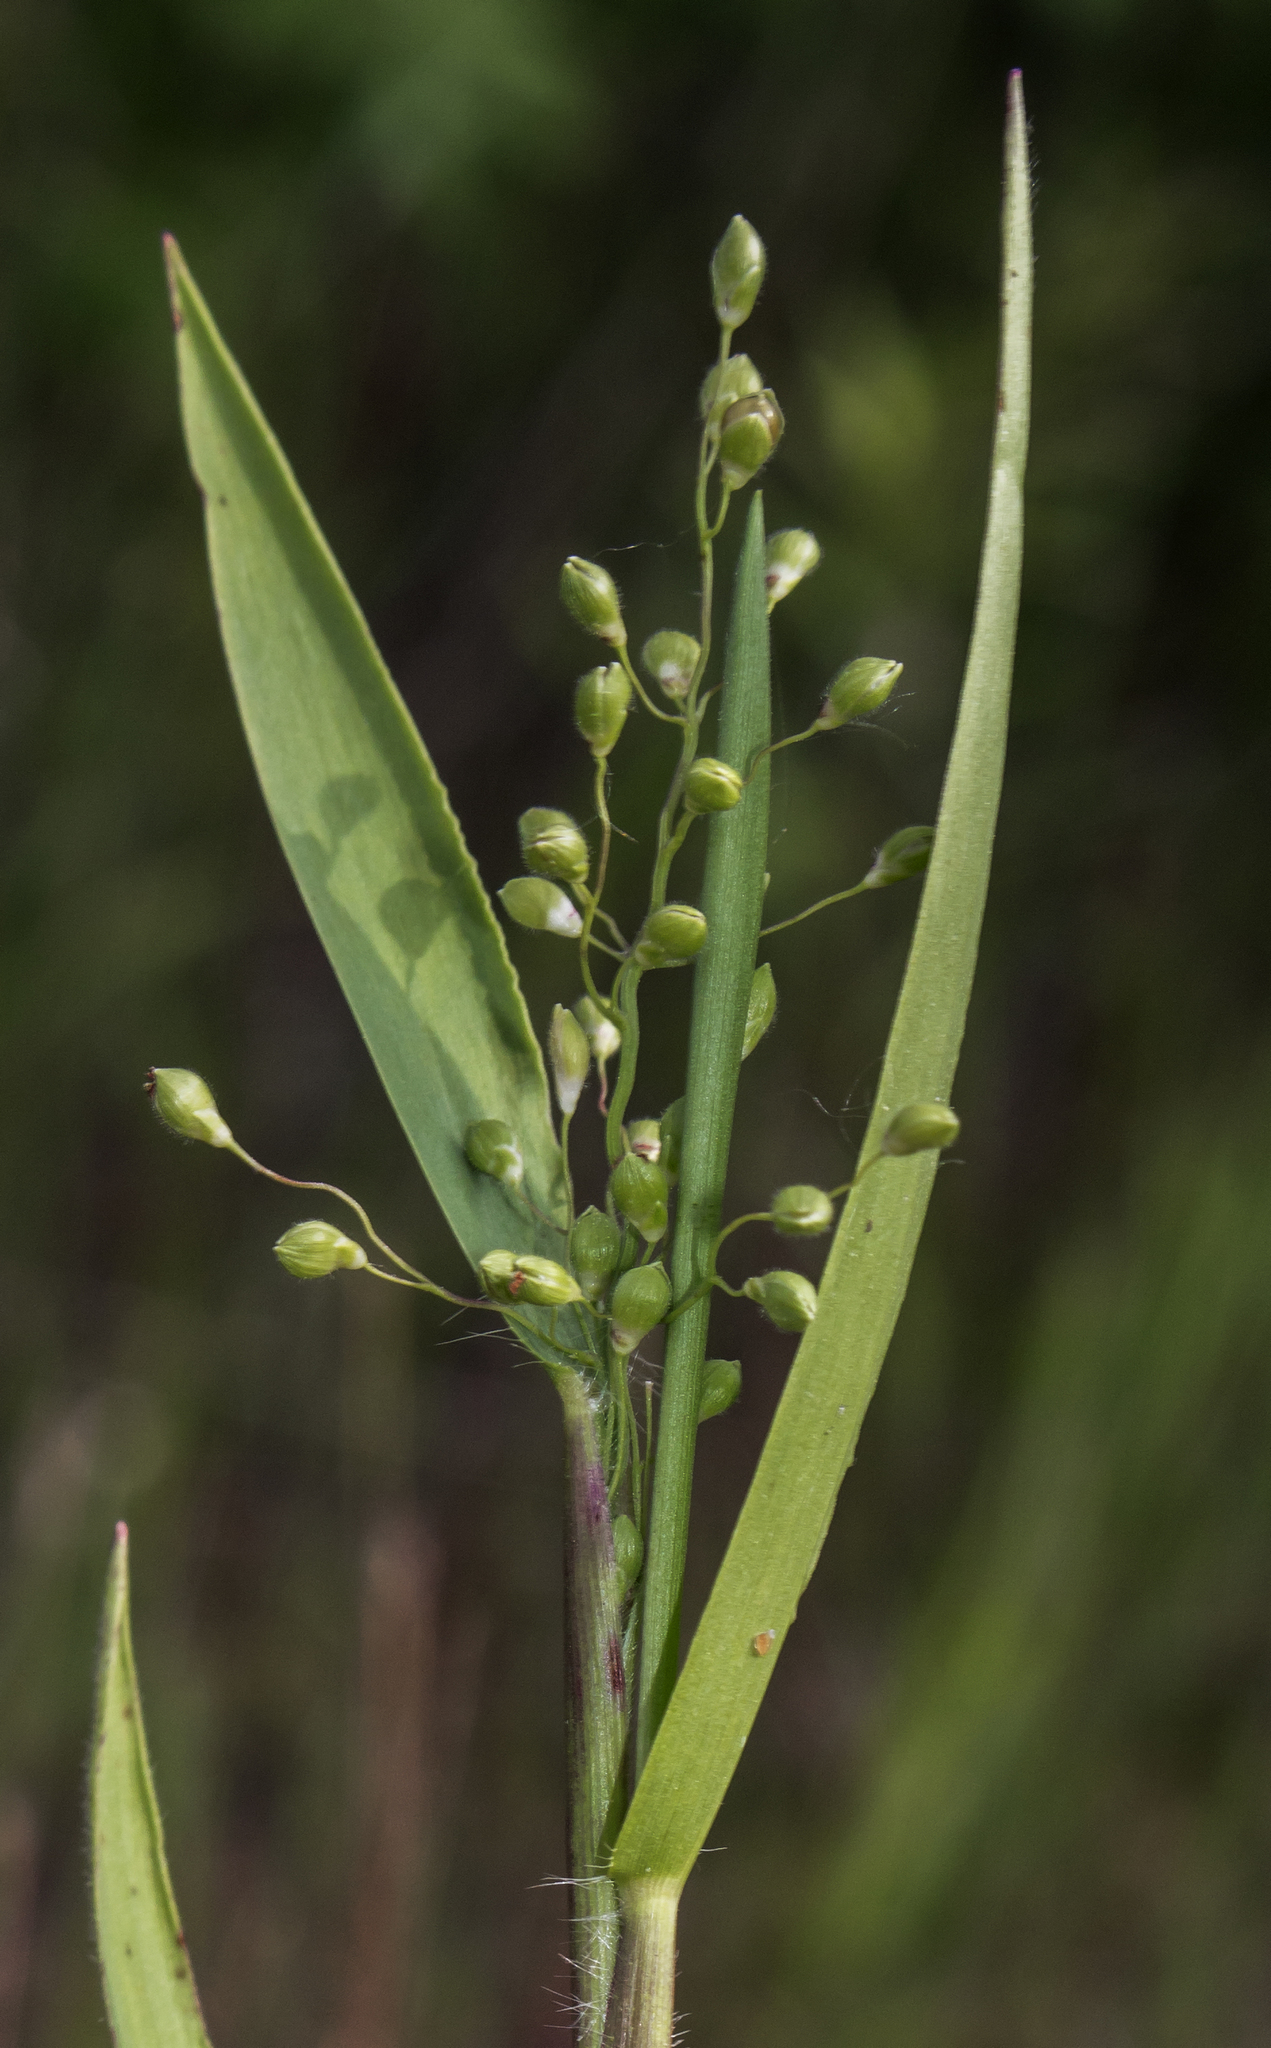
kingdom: Plantae
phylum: Tracheophyta
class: Liliopsida
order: Poales
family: Poaceae
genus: Dichanthelium
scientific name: Dichanthelium scribnerianum
